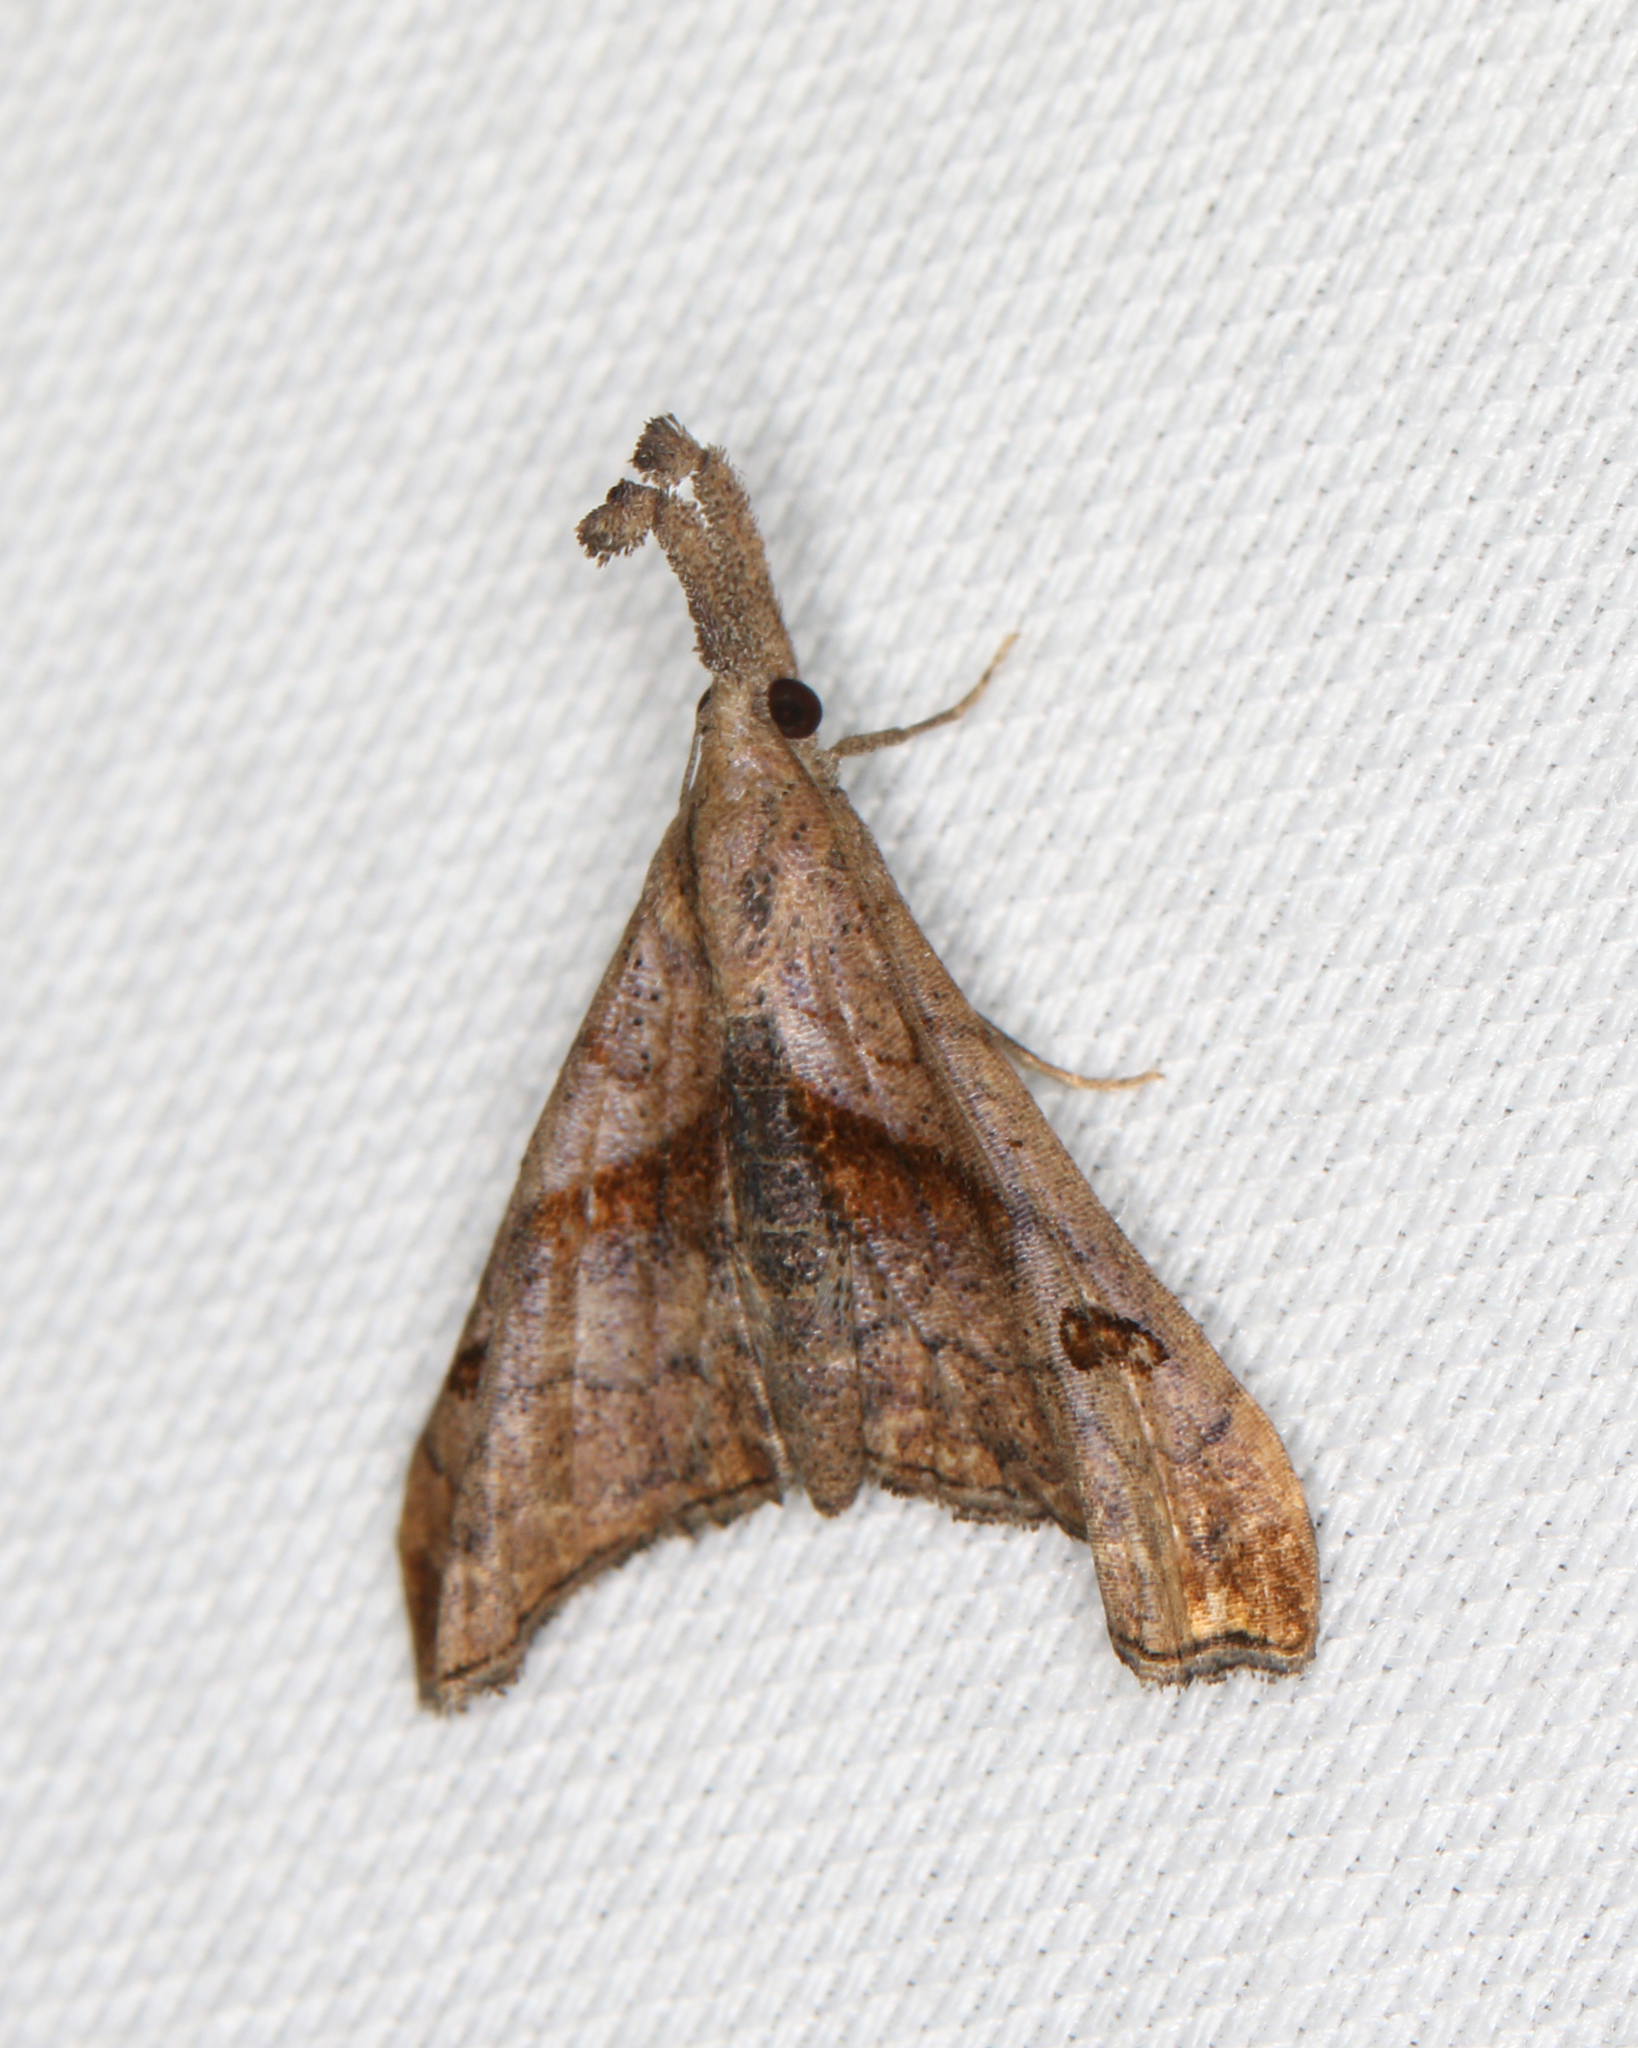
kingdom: Animalia
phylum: Arthropoda
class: Insecta
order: Lepidoptera
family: Erebidae
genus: Palthis
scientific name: Palthis angulalis
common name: Dark-spotted palthis moth
